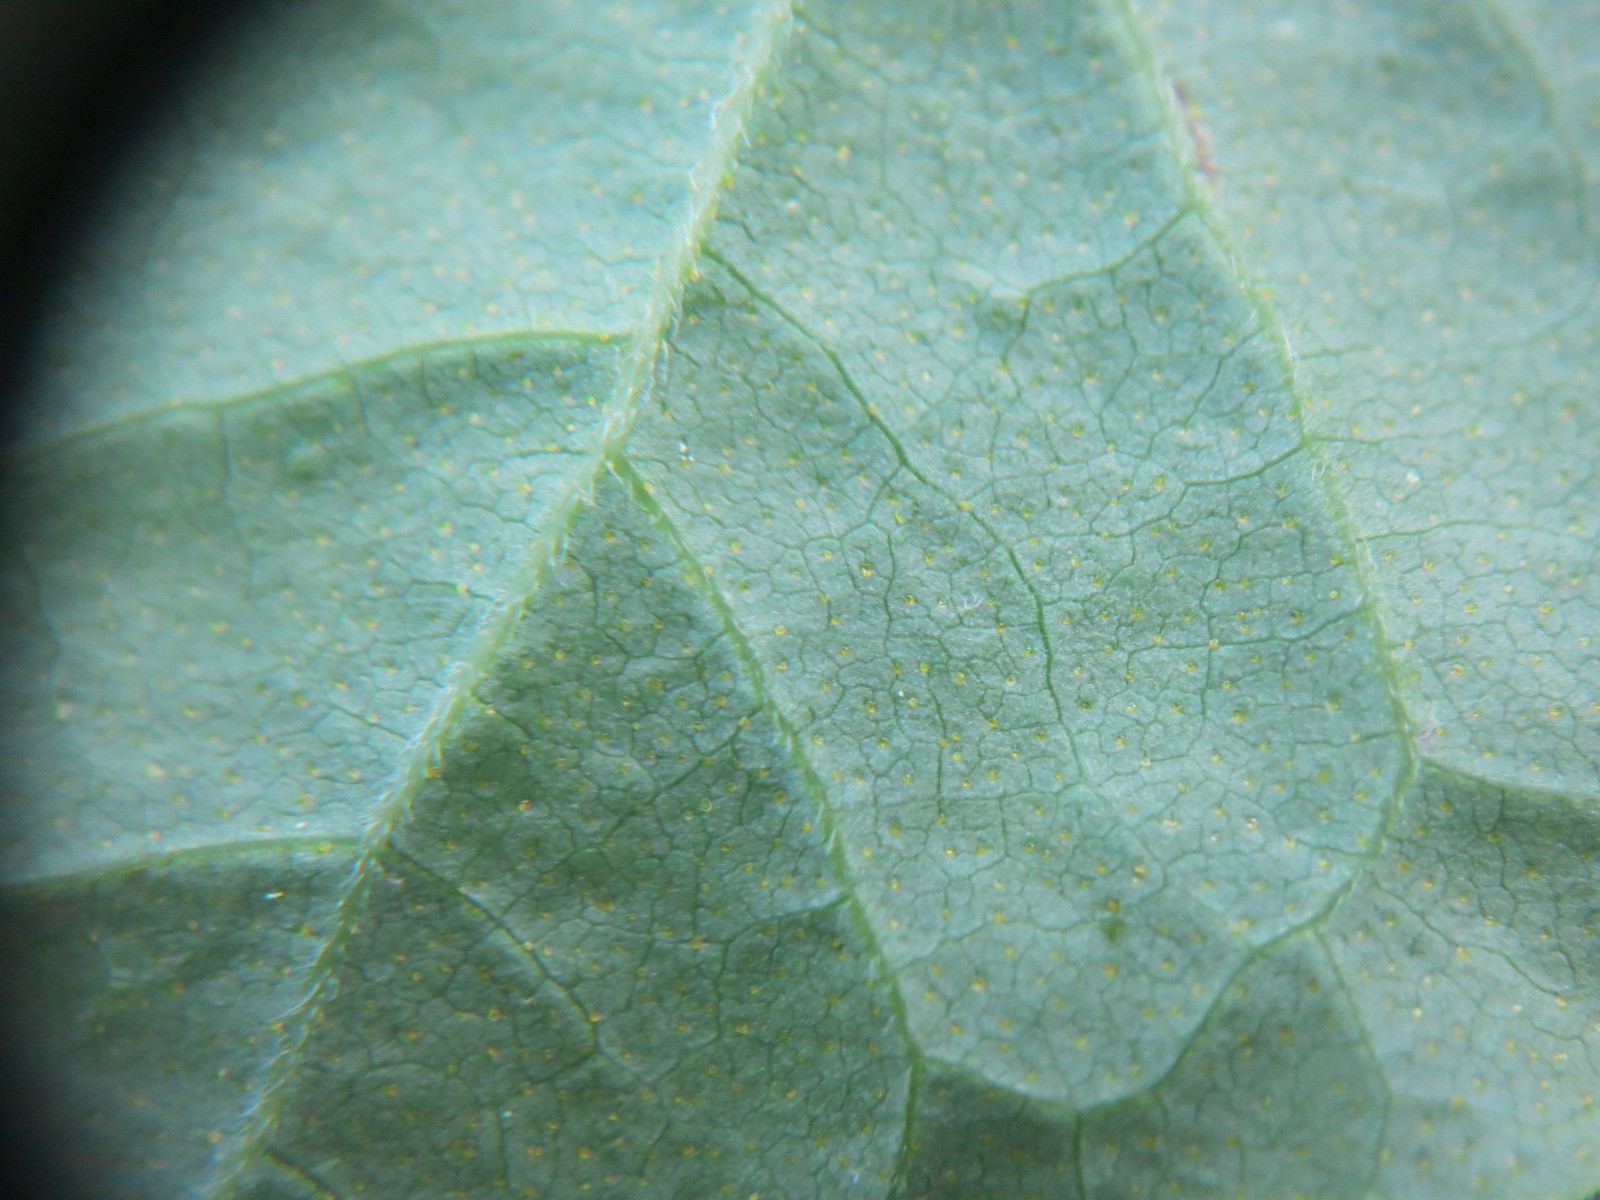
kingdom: Plantae
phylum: Tracheophyta
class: Magnoliopsida
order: Ericales
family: Ericaceae
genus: Gaylussacia
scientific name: Gaylussacia ursina
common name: Bear huckleberry
